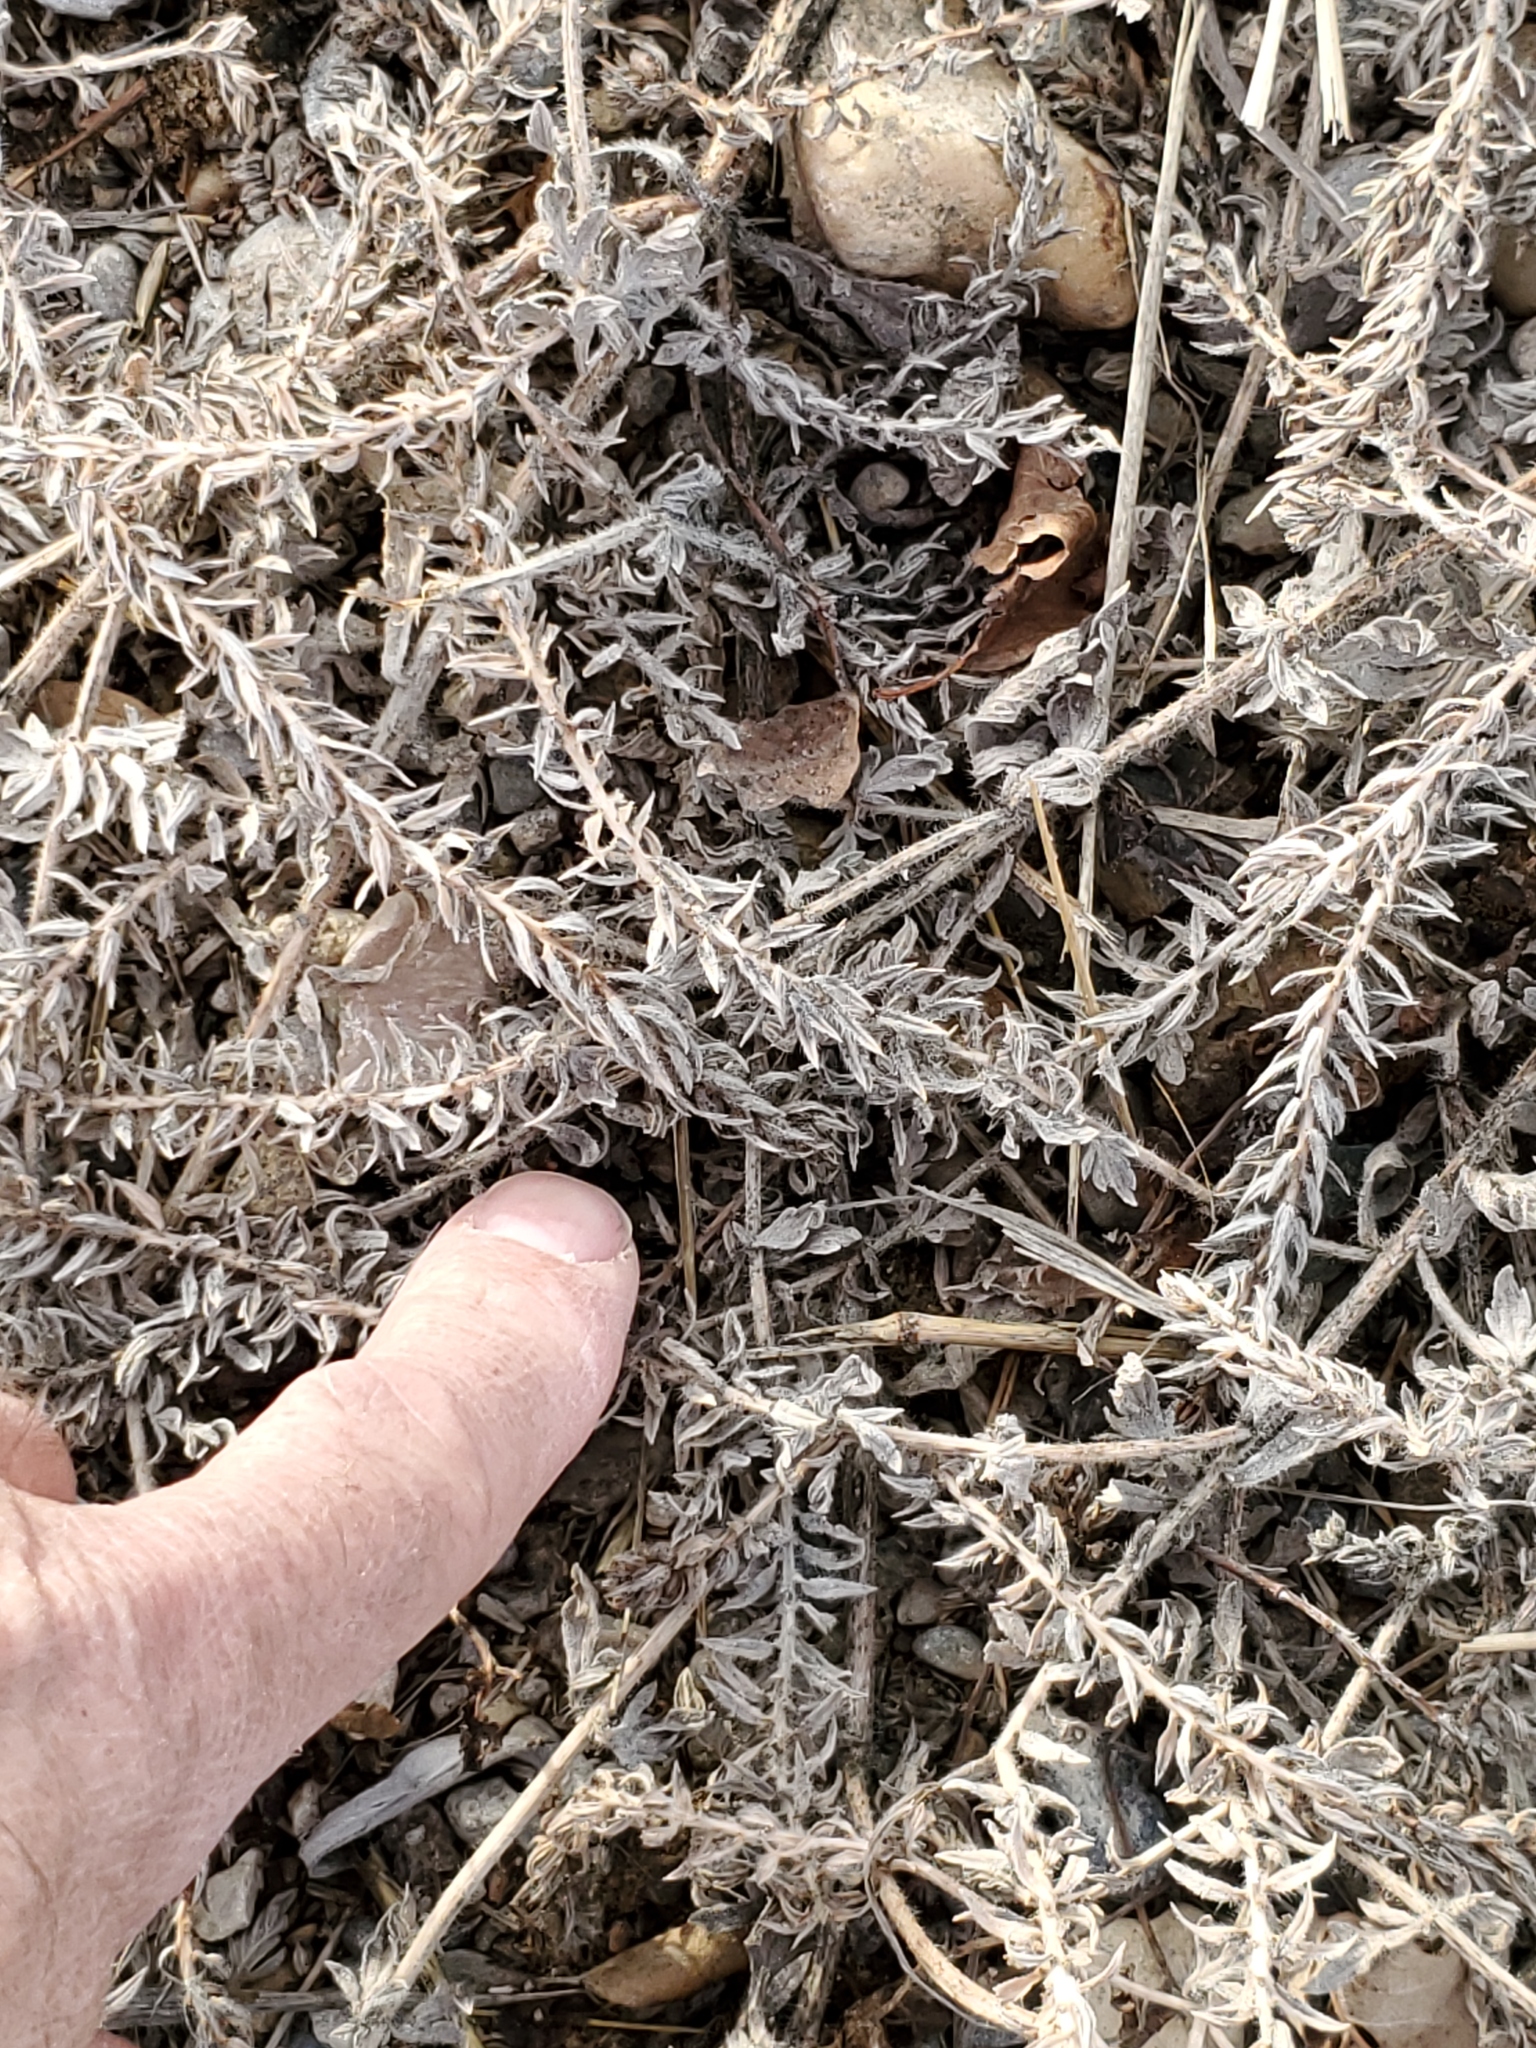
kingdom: Plantae
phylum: Tracheophyta
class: Magnoliopsida
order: Lamiales
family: Verbenaceae
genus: Verbena
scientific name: Verbena bracteata
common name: Bracted vervain
